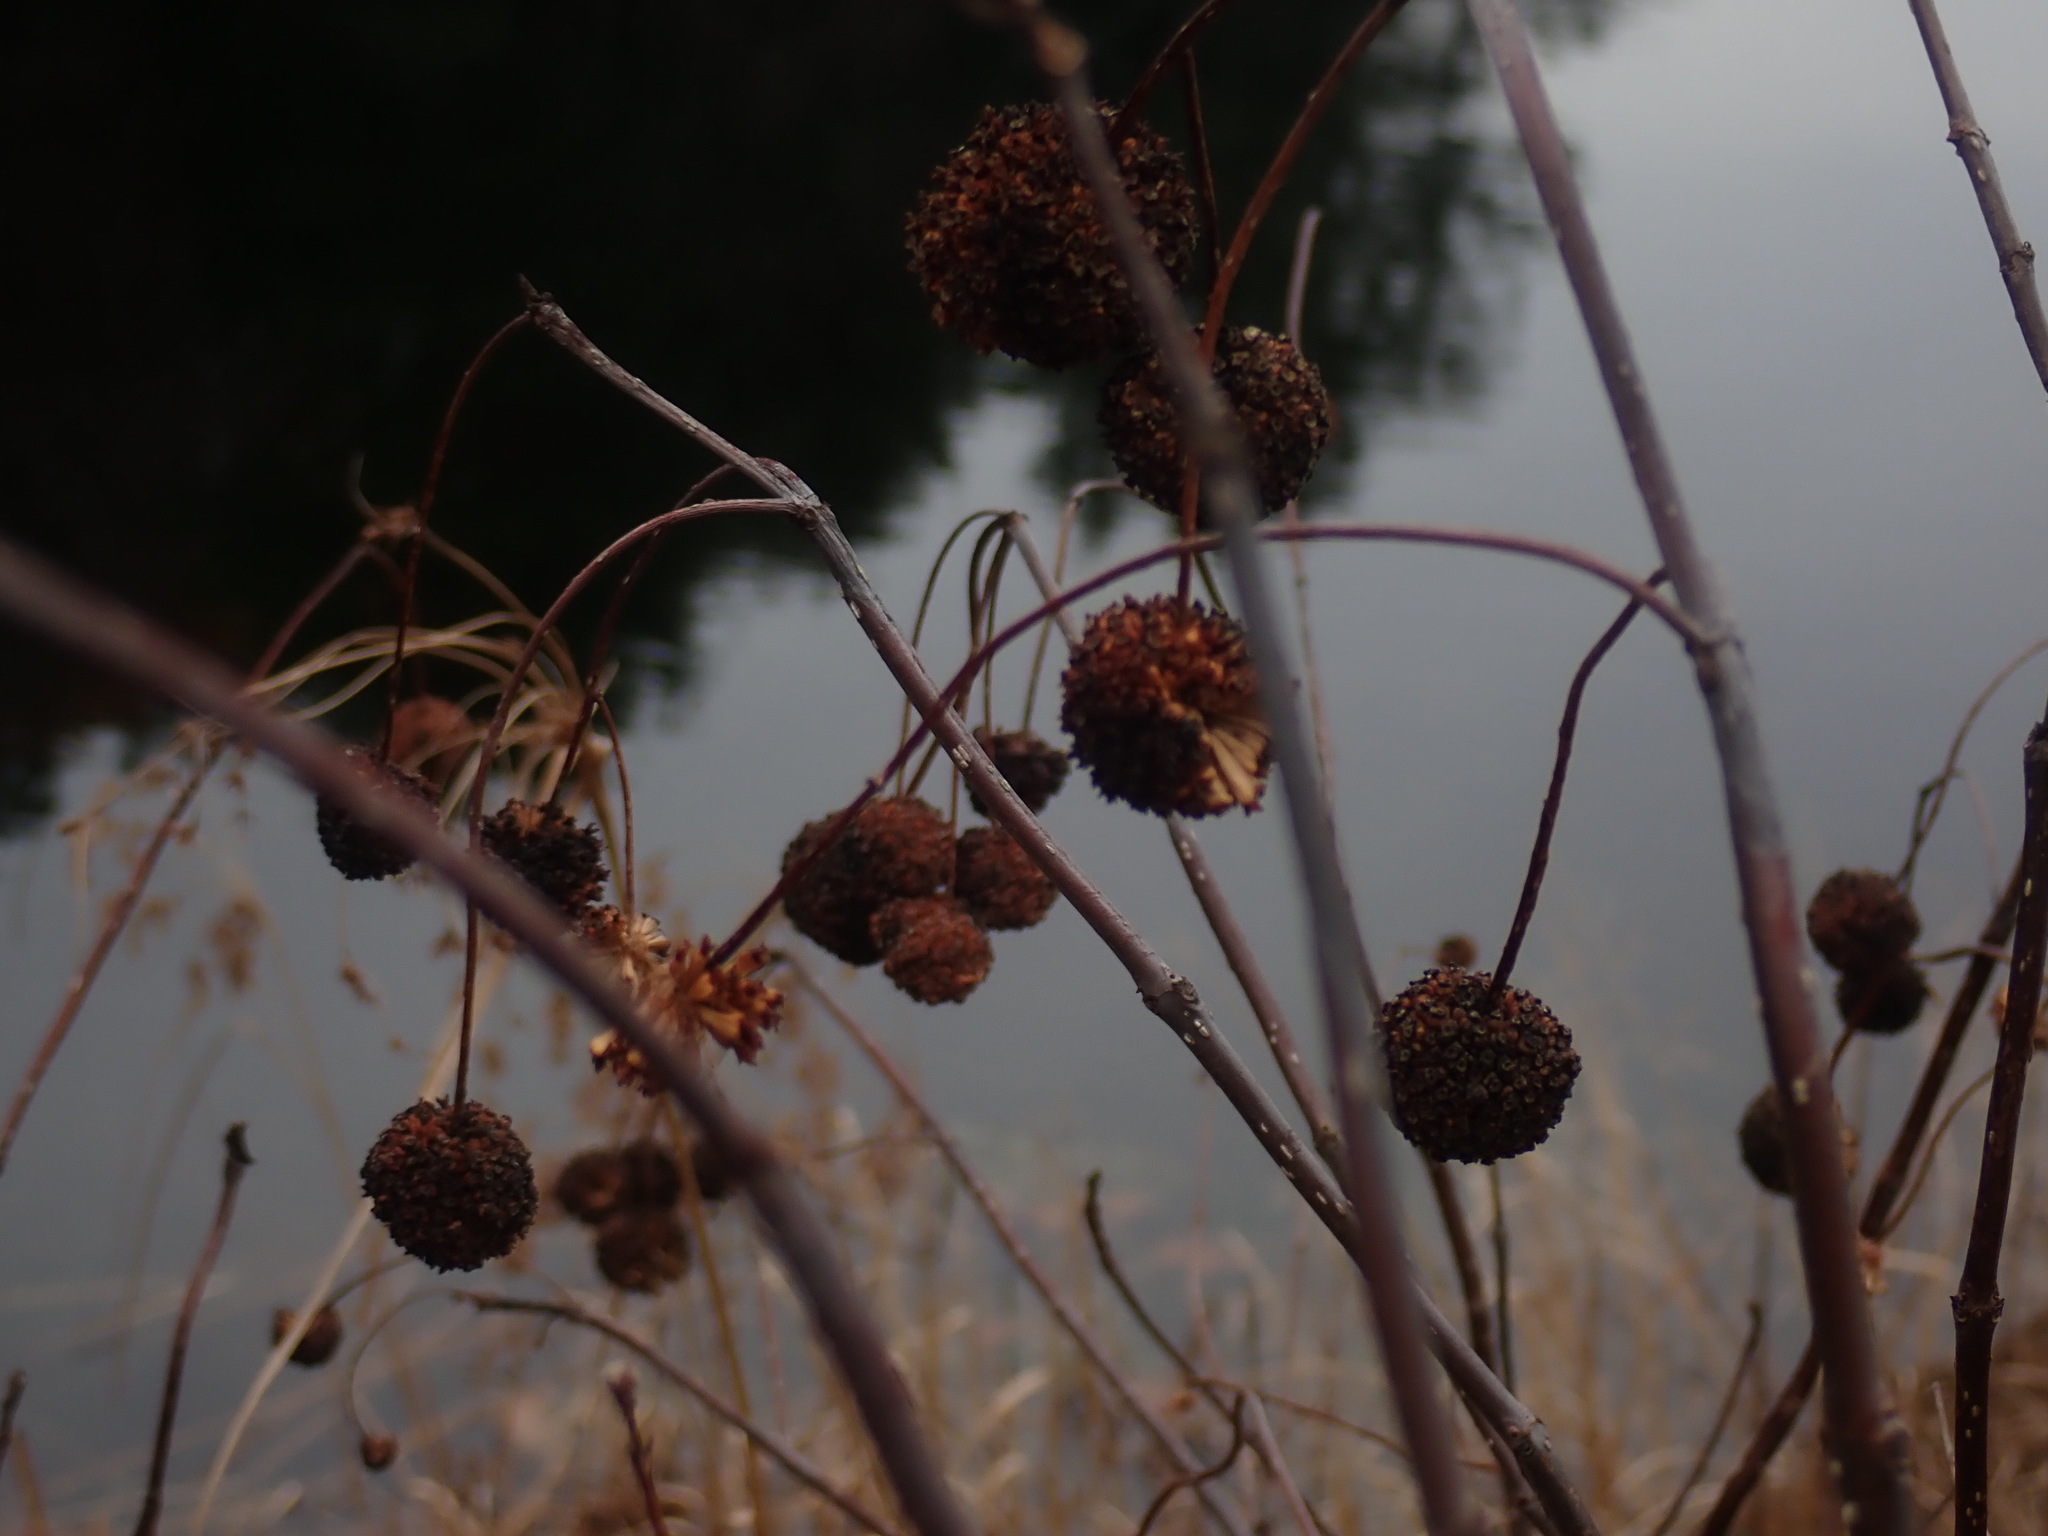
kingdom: Plantae
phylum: Tracheophyta
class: Magnoliopsida
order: Gentianales
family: Rubiaceae
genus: Cephalanthus
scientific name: Cephalanthus occidentalis
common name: Button-willow
